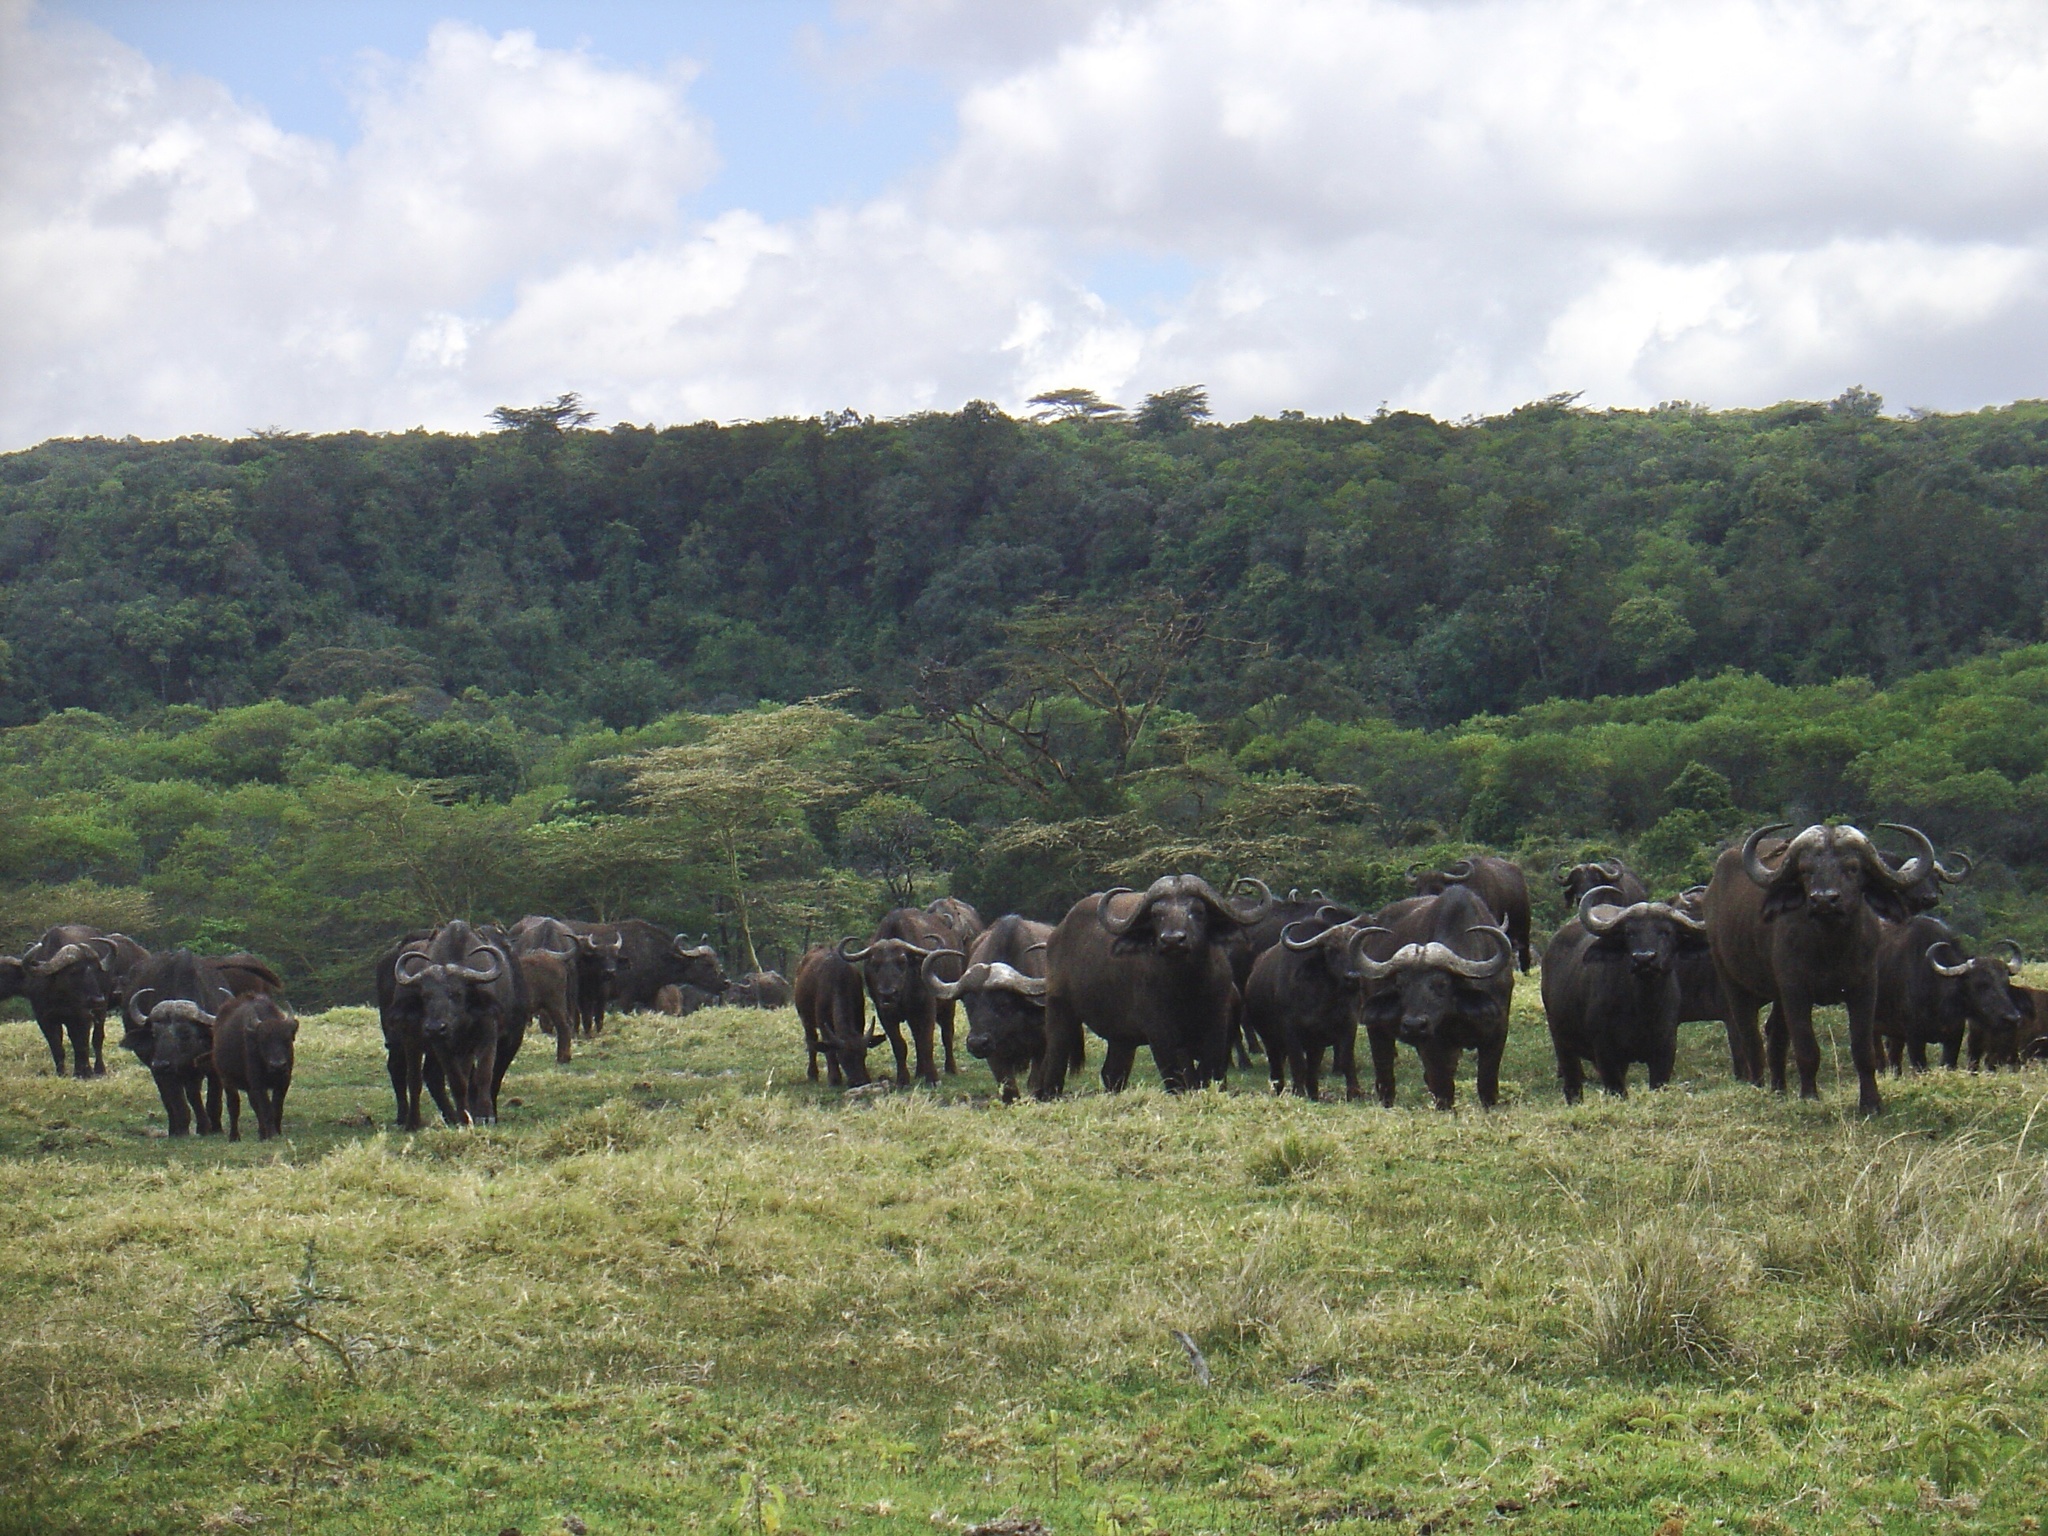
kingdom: Animalia
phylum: Chordata
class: Mammalia
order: Artiodactyla
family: Bovidae
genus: Syncerus
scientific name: Syncerus caffer
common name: African buffalo
